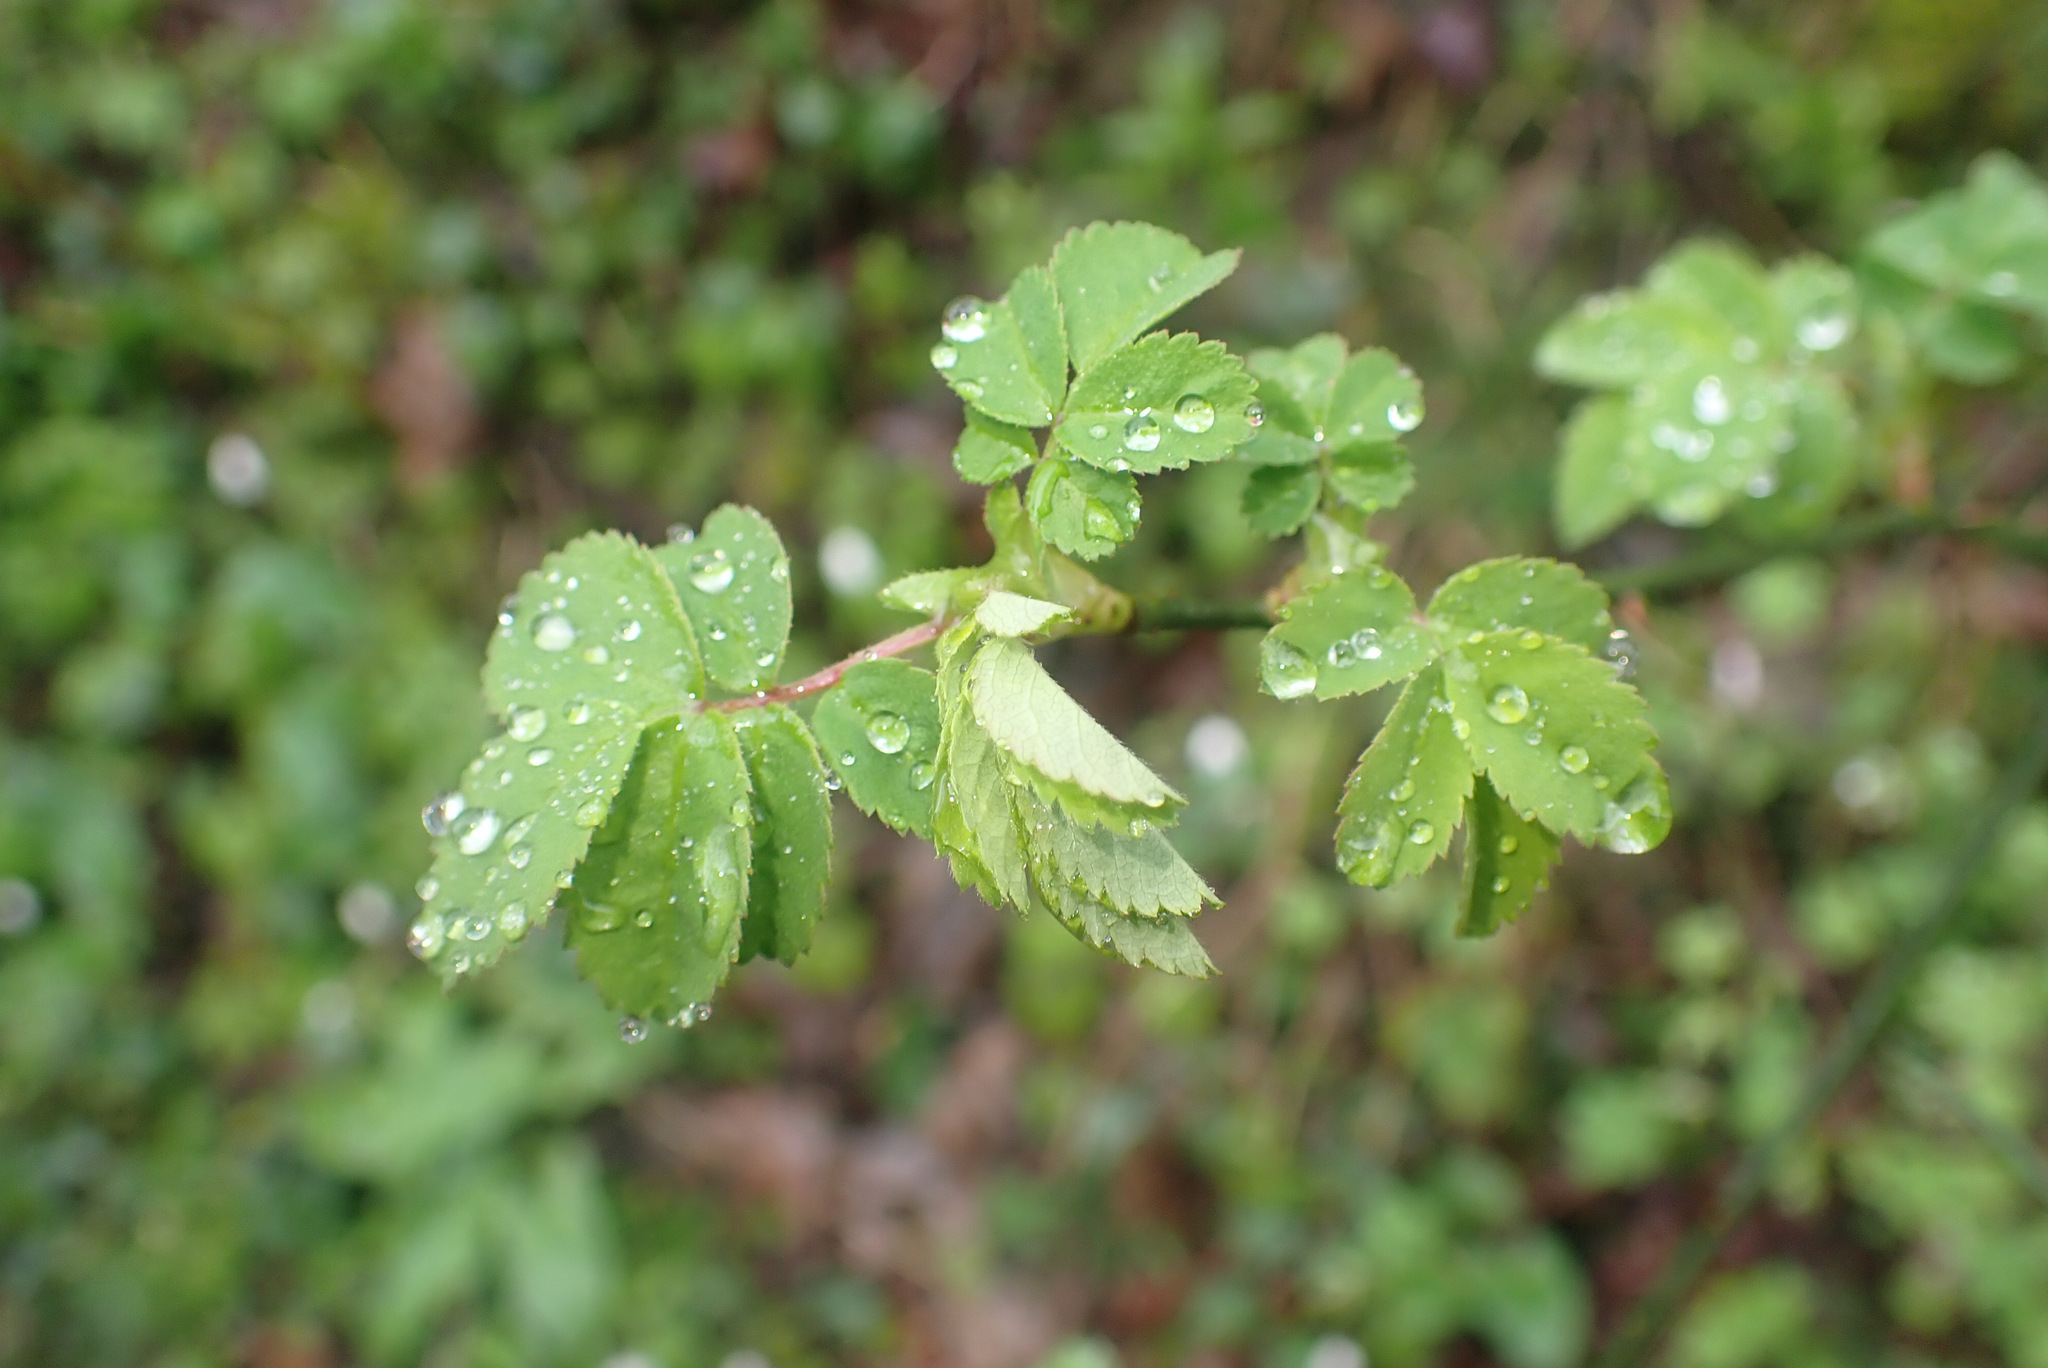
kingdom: Plantae
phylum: Tracheophyta
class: Magnoliopsida
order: Rosales
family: Rosaceae
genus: Rosa
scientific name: Rosa arvensis
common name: Field rose
